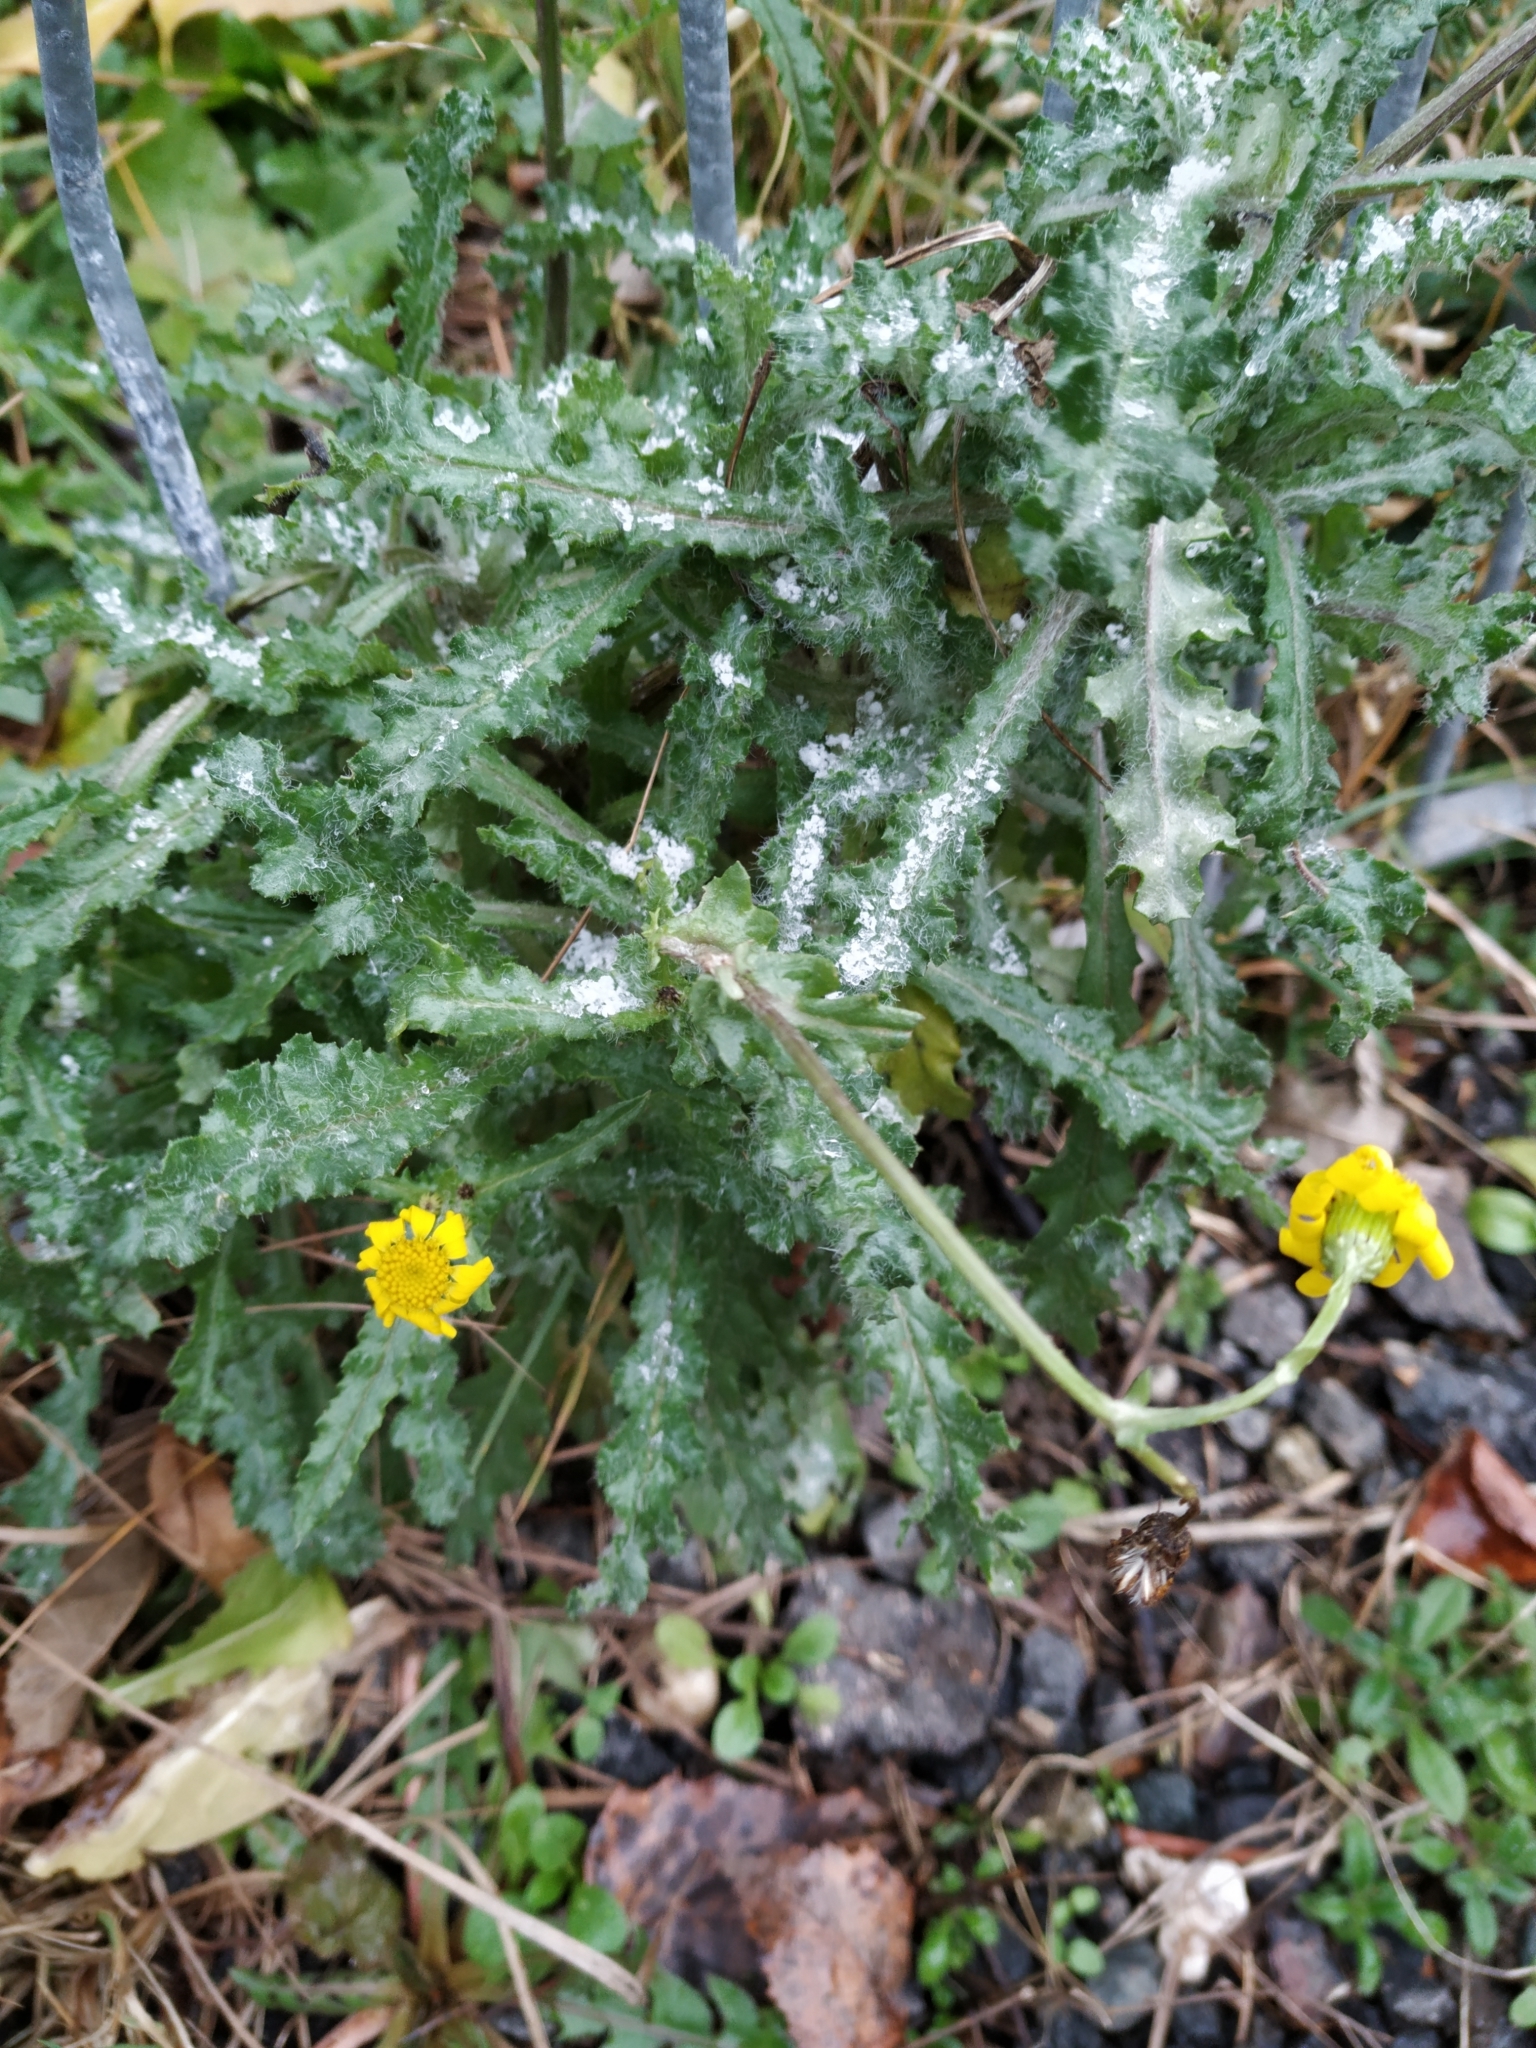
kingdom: Plantae
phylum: Tracheophyta
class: Magnoliopsida
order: Asterales
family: Asteraceae
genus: Senecio
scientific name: Senecio vernalis
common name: Eastern groundsel
